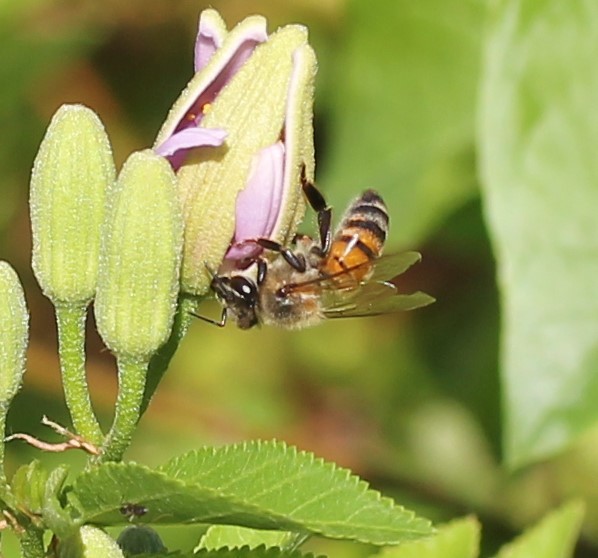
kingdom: Animalia
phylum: Arthropoda
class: Insecta
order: Hymenoptera
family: Apidae
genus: Apis
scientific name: Apis mellifera
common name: Honey bee
